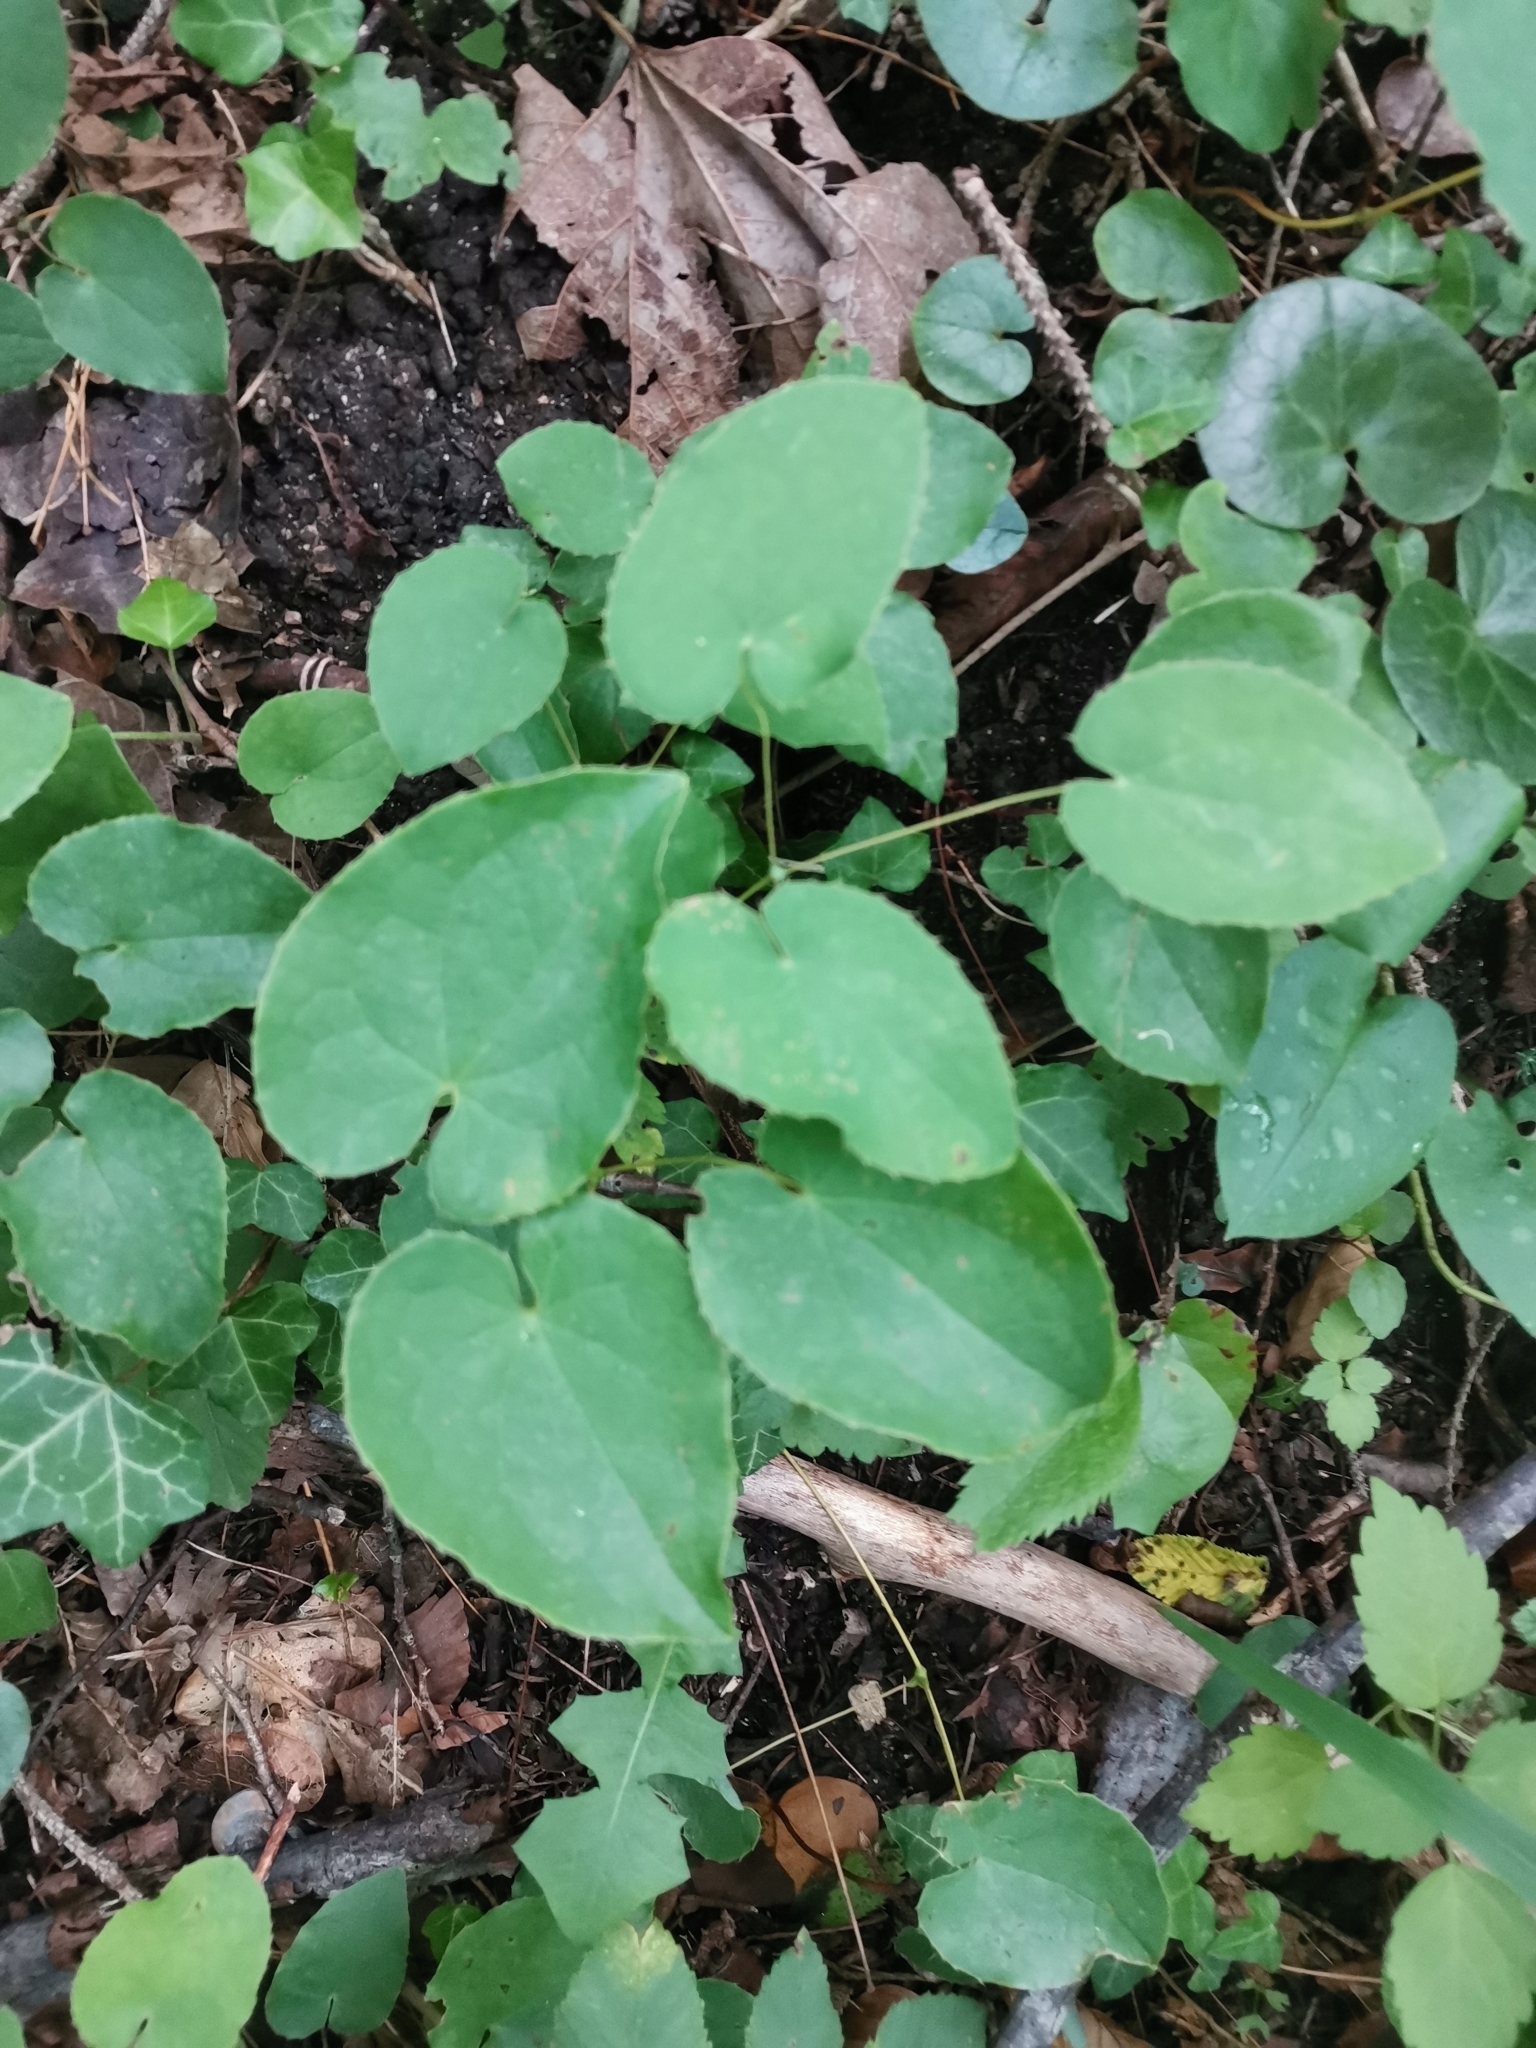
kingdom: Plantae
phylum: Tracheophyta
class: Magnoliopsida
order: Ranunculales
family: Berberidaceae
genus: Epimedium
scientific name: Epimedium alpinum
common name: Barrenwort
